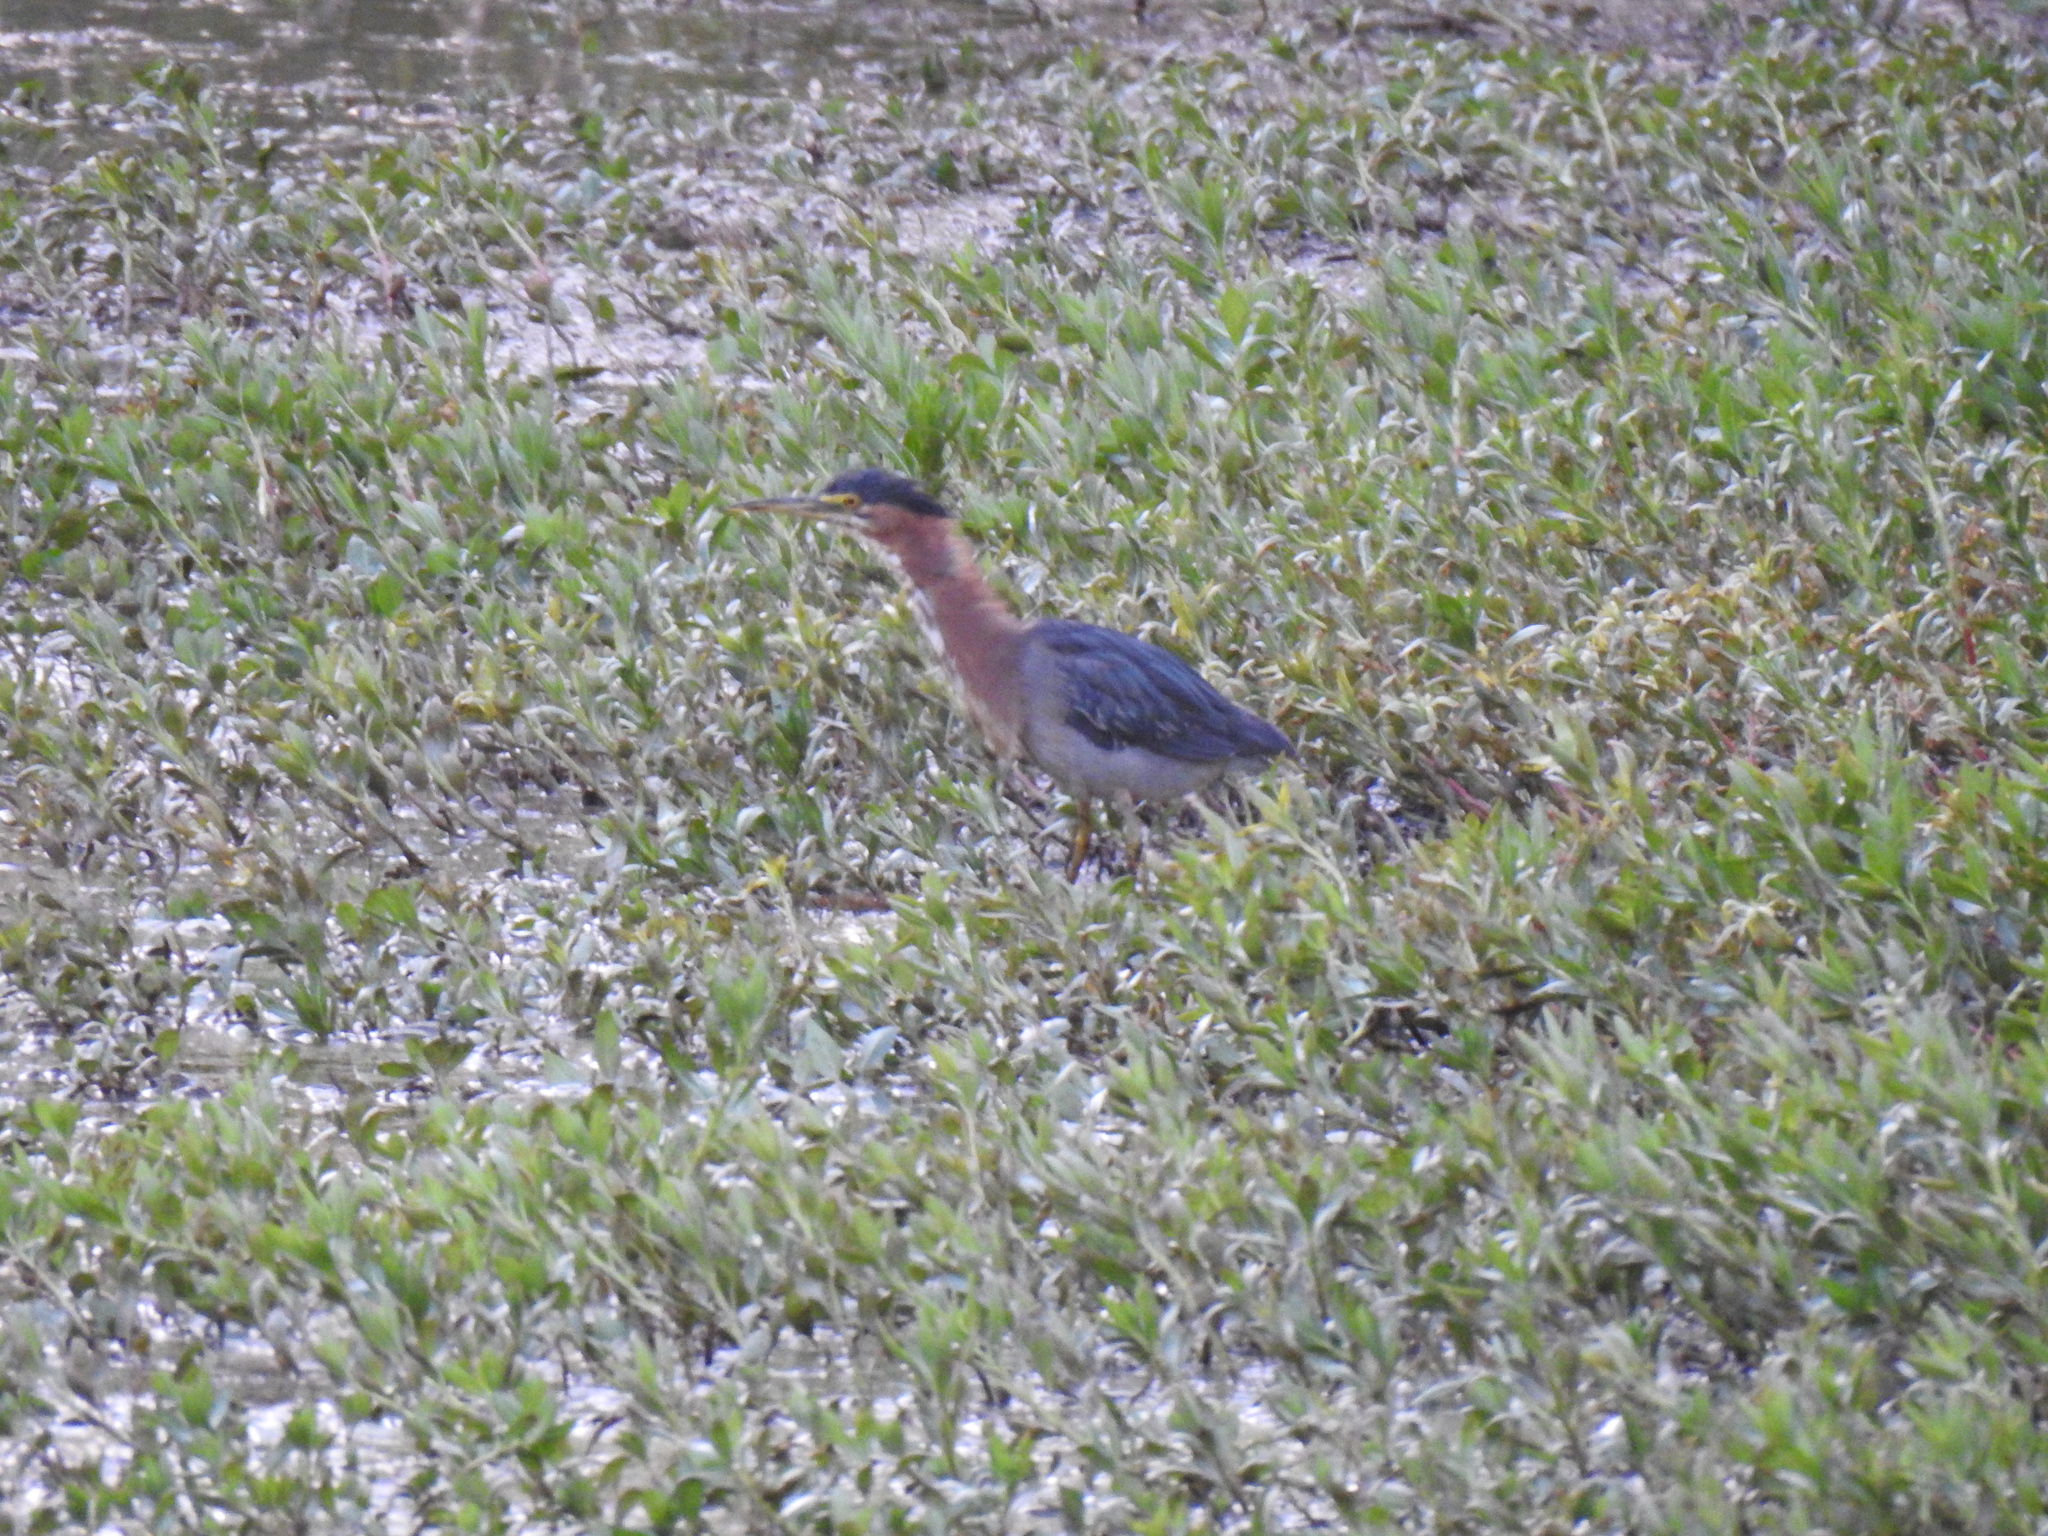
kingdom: Animalia
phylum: Chordata
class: Aves
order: Pelecaniformes
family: Ardeidae
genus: Butorides
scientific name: Butorides virescens
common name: Green heron
